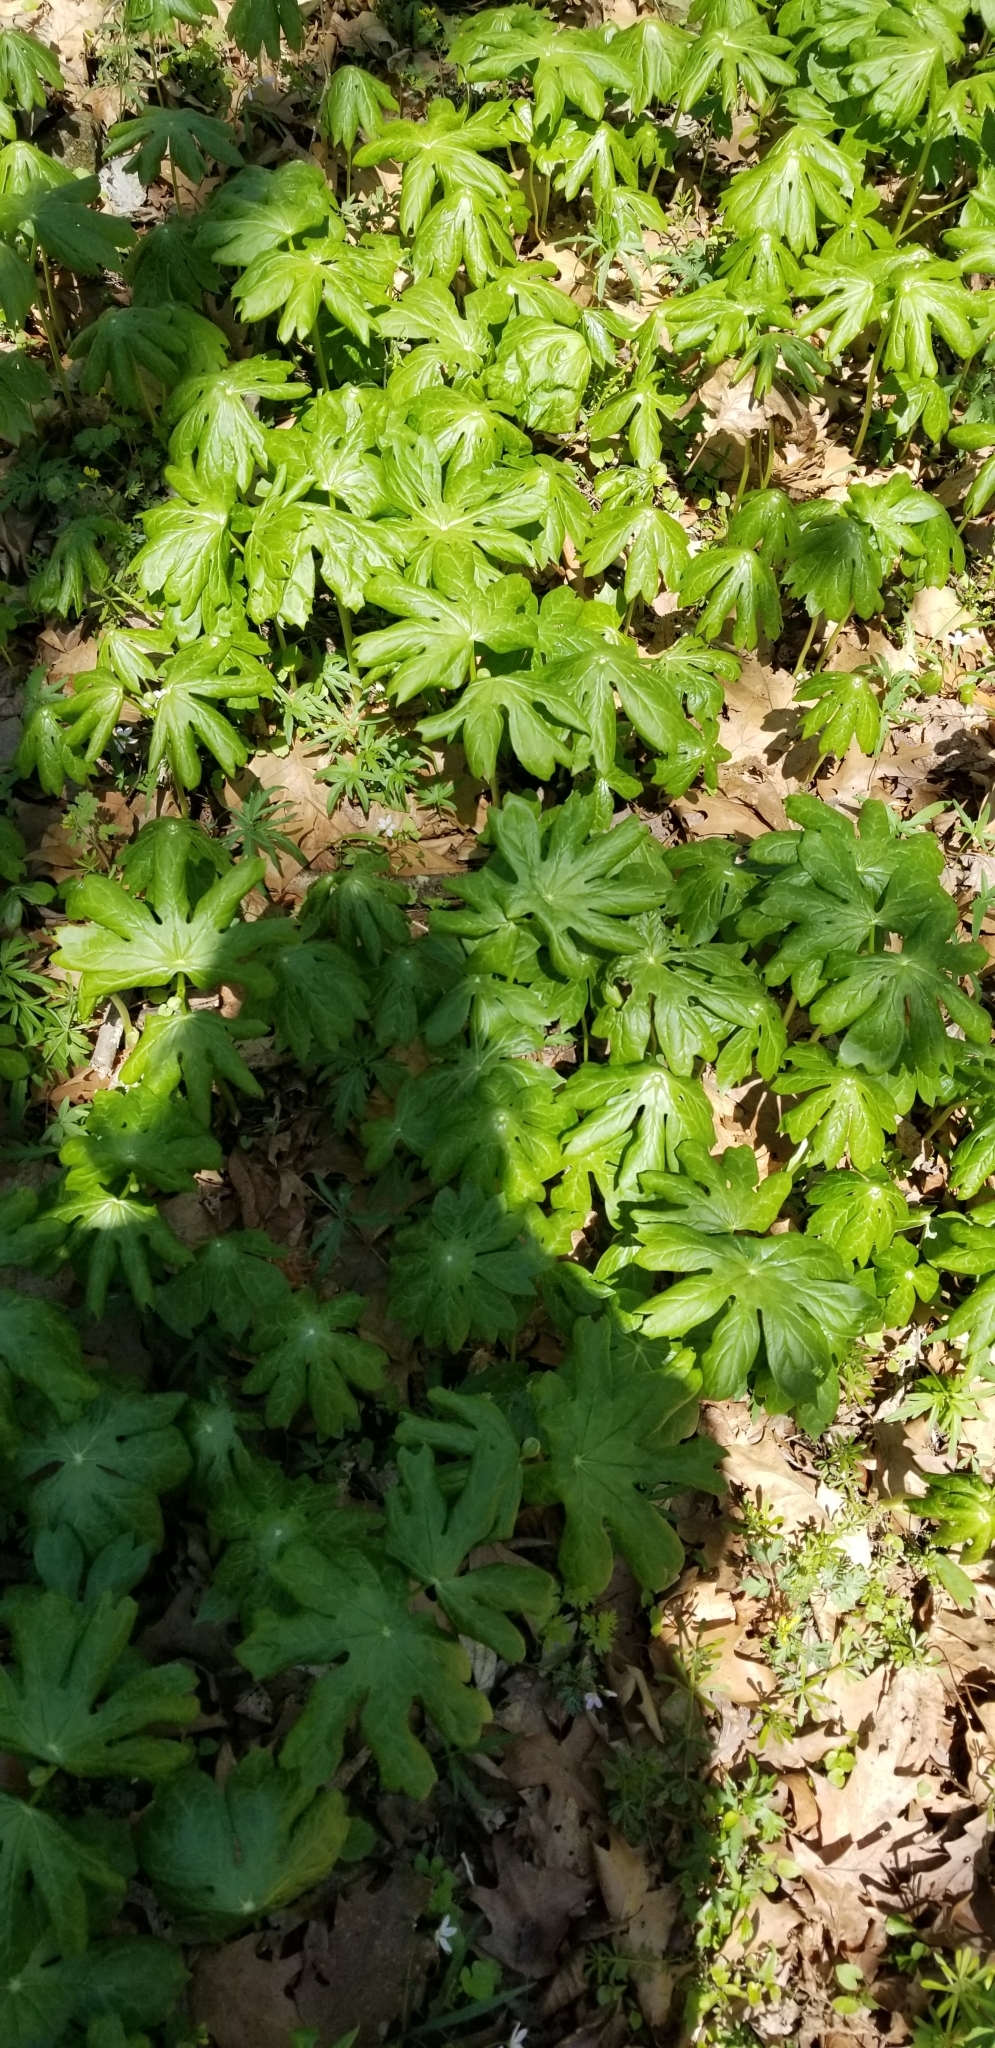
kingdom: Plantae
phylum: Tracheophyta
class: Magnoliopsida
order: Ranunculales
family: Berberidaceae
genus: Podophyllum
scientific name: Podophyllum peltatum
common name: Wild mandrake
